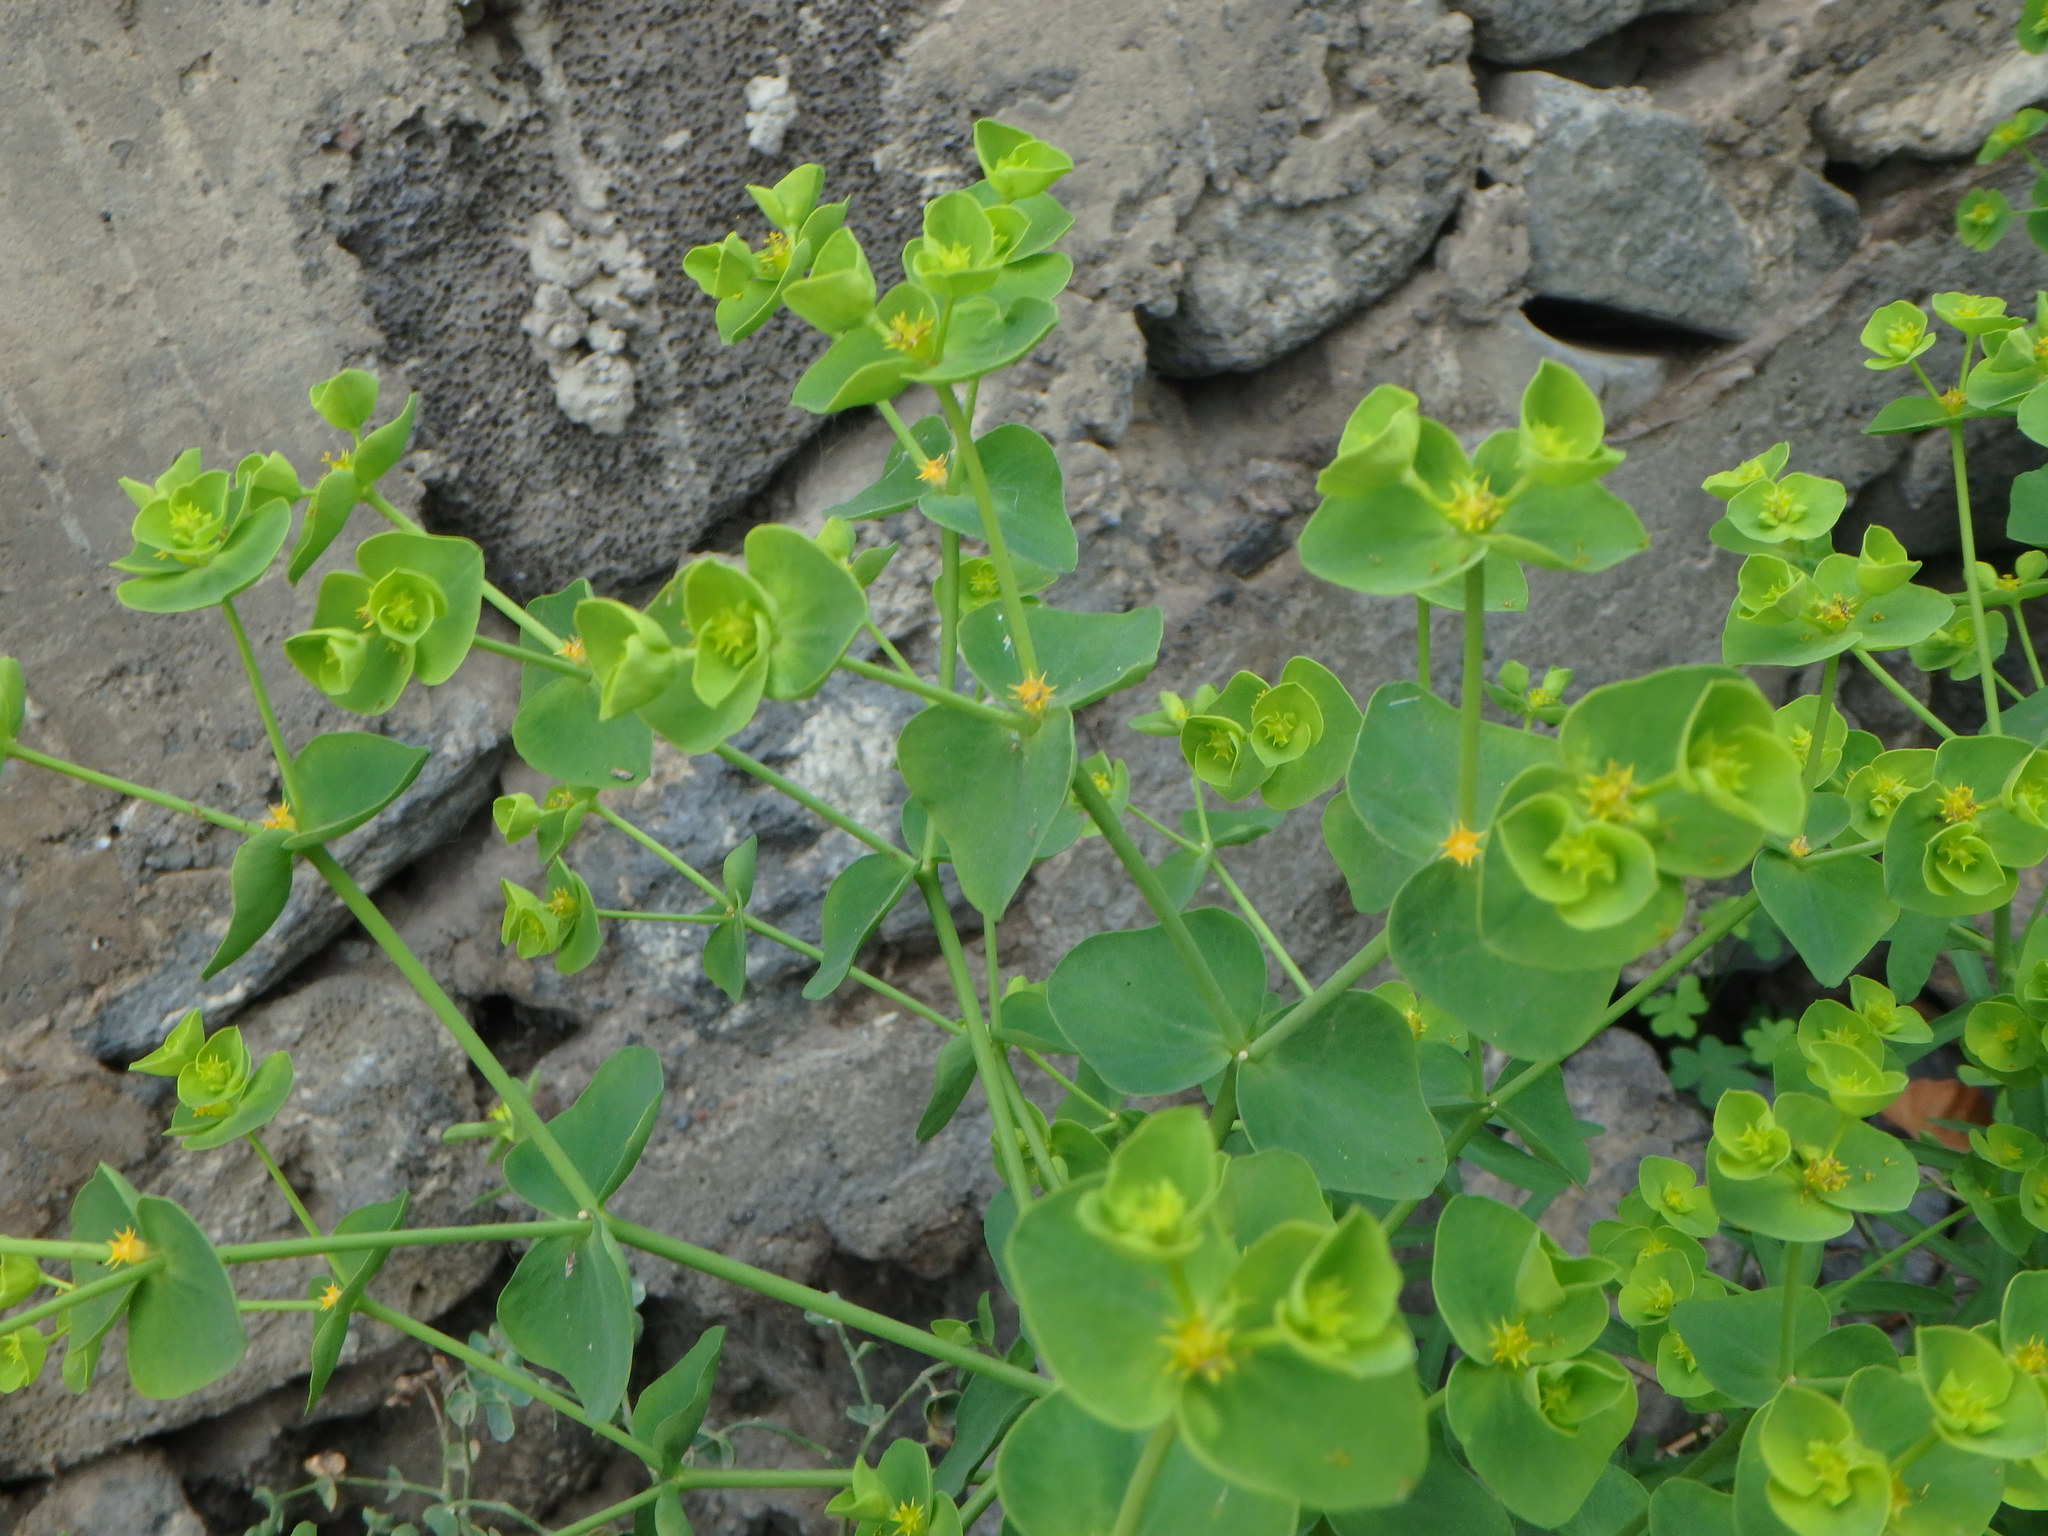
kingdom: Plantae
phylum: Tracheophyta
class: Magnoliopsida
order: Malpighiales
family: Euphorbiaceae
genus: Euphorbia
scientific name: Euphorbia segetalis
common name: Corn spurge
